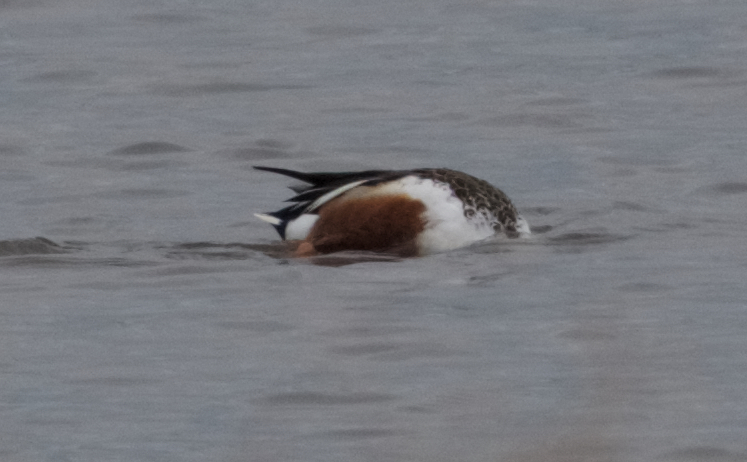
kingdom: Animalia
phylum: Chordata
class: Aves
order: Anseriformes
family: Anatidae
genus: Spatula
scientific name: Spatula clypeata
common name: Northern shoveler
